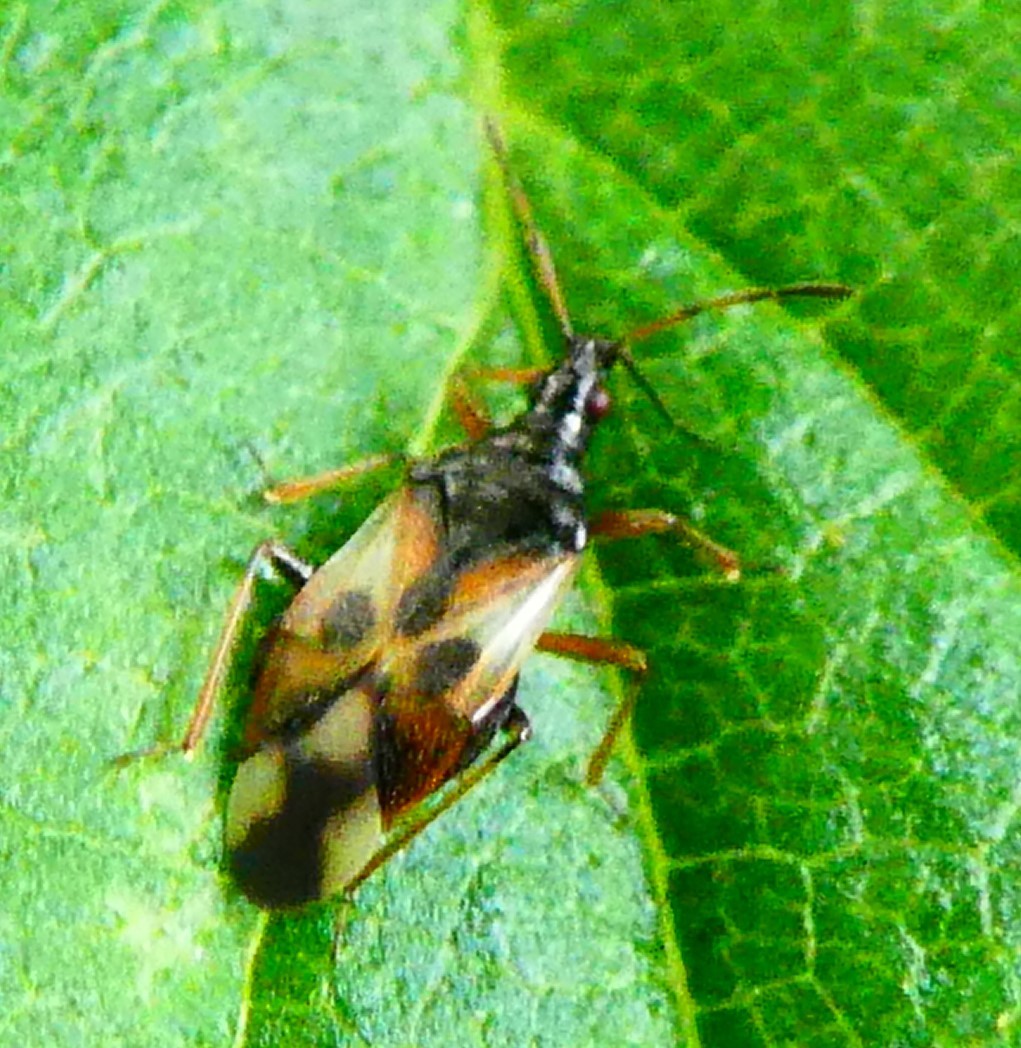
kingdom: Animalia
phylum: Arthropoda
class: Insecta
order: Hemiptera
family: Anthocoridae
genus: Anthocoris
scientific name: Anthocoris nemorum
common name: Minute pirate bug
